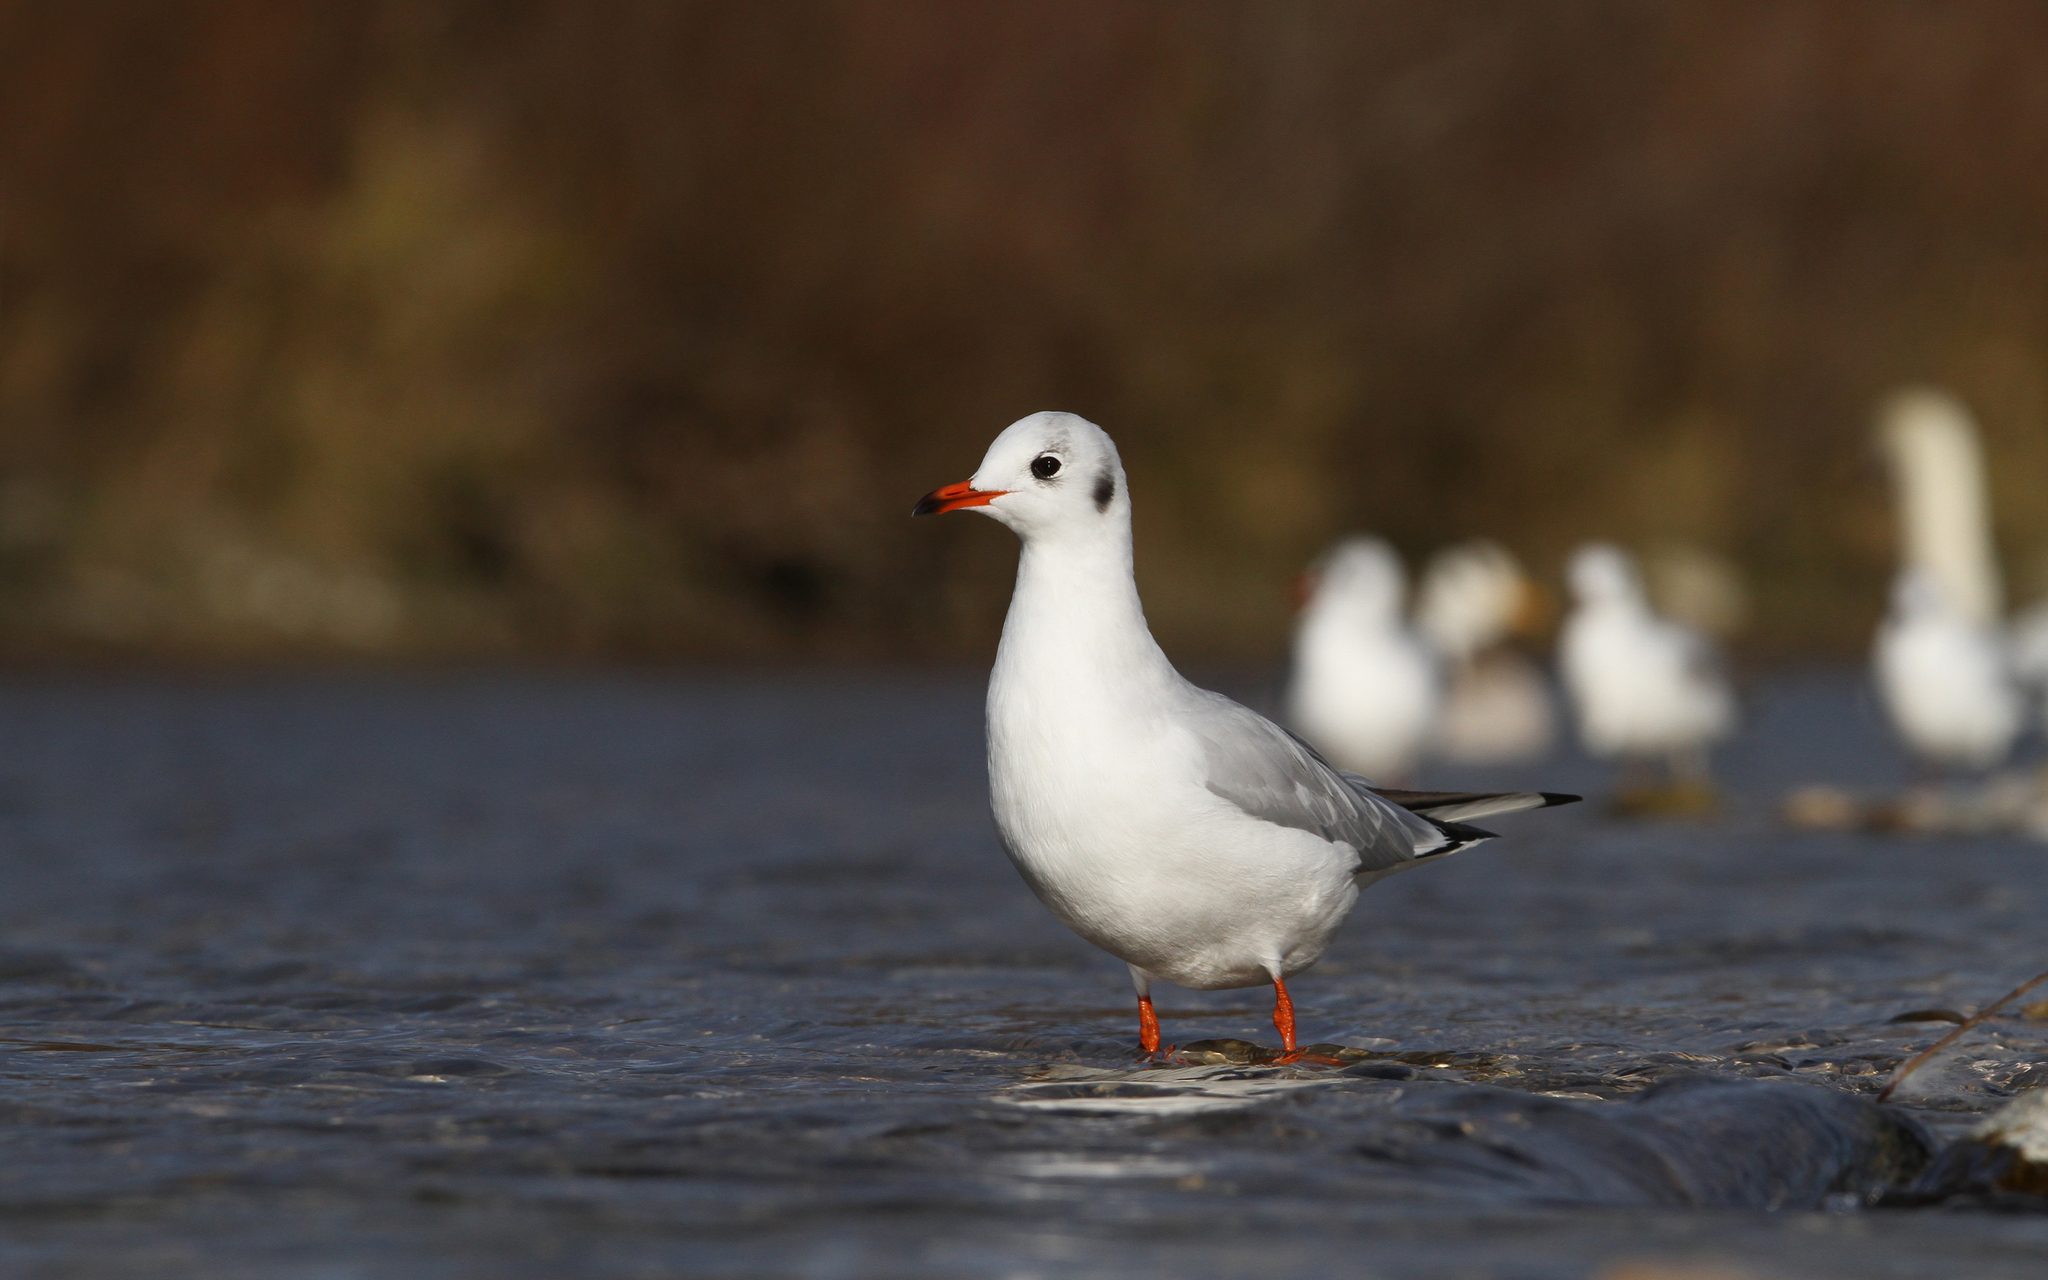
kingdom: Animalia
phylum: Chordata
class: Aves
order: Charadriiformes
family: Laridae
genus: Chroicocephalus
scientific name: Chroicocephalus ridibundus
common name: Black-headed gull
